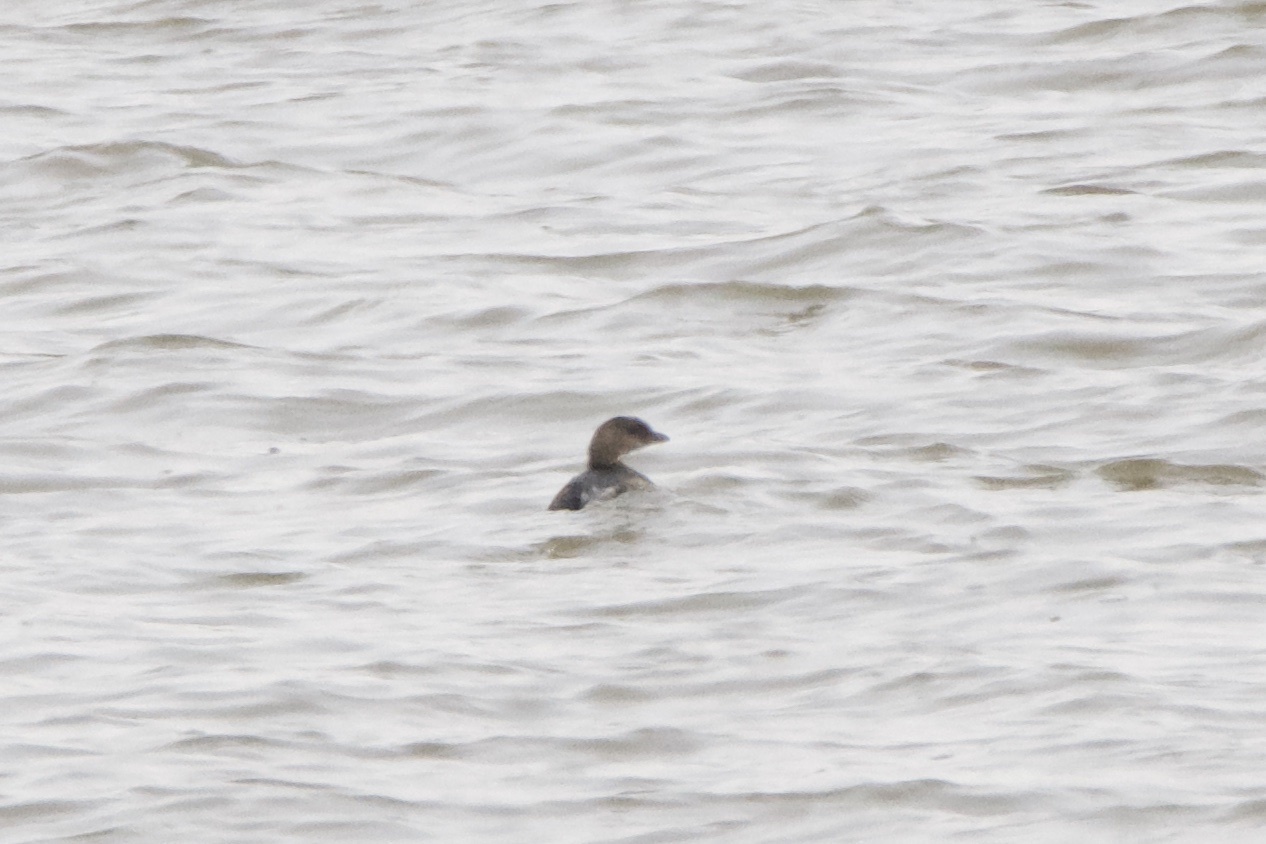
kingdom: Animalia
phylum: Chordata
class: Aves
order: Podicipediformes
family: Podicipedidae
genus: Podilymbus
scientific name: Podilymbus podiceps
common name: Pied-billed grebe
